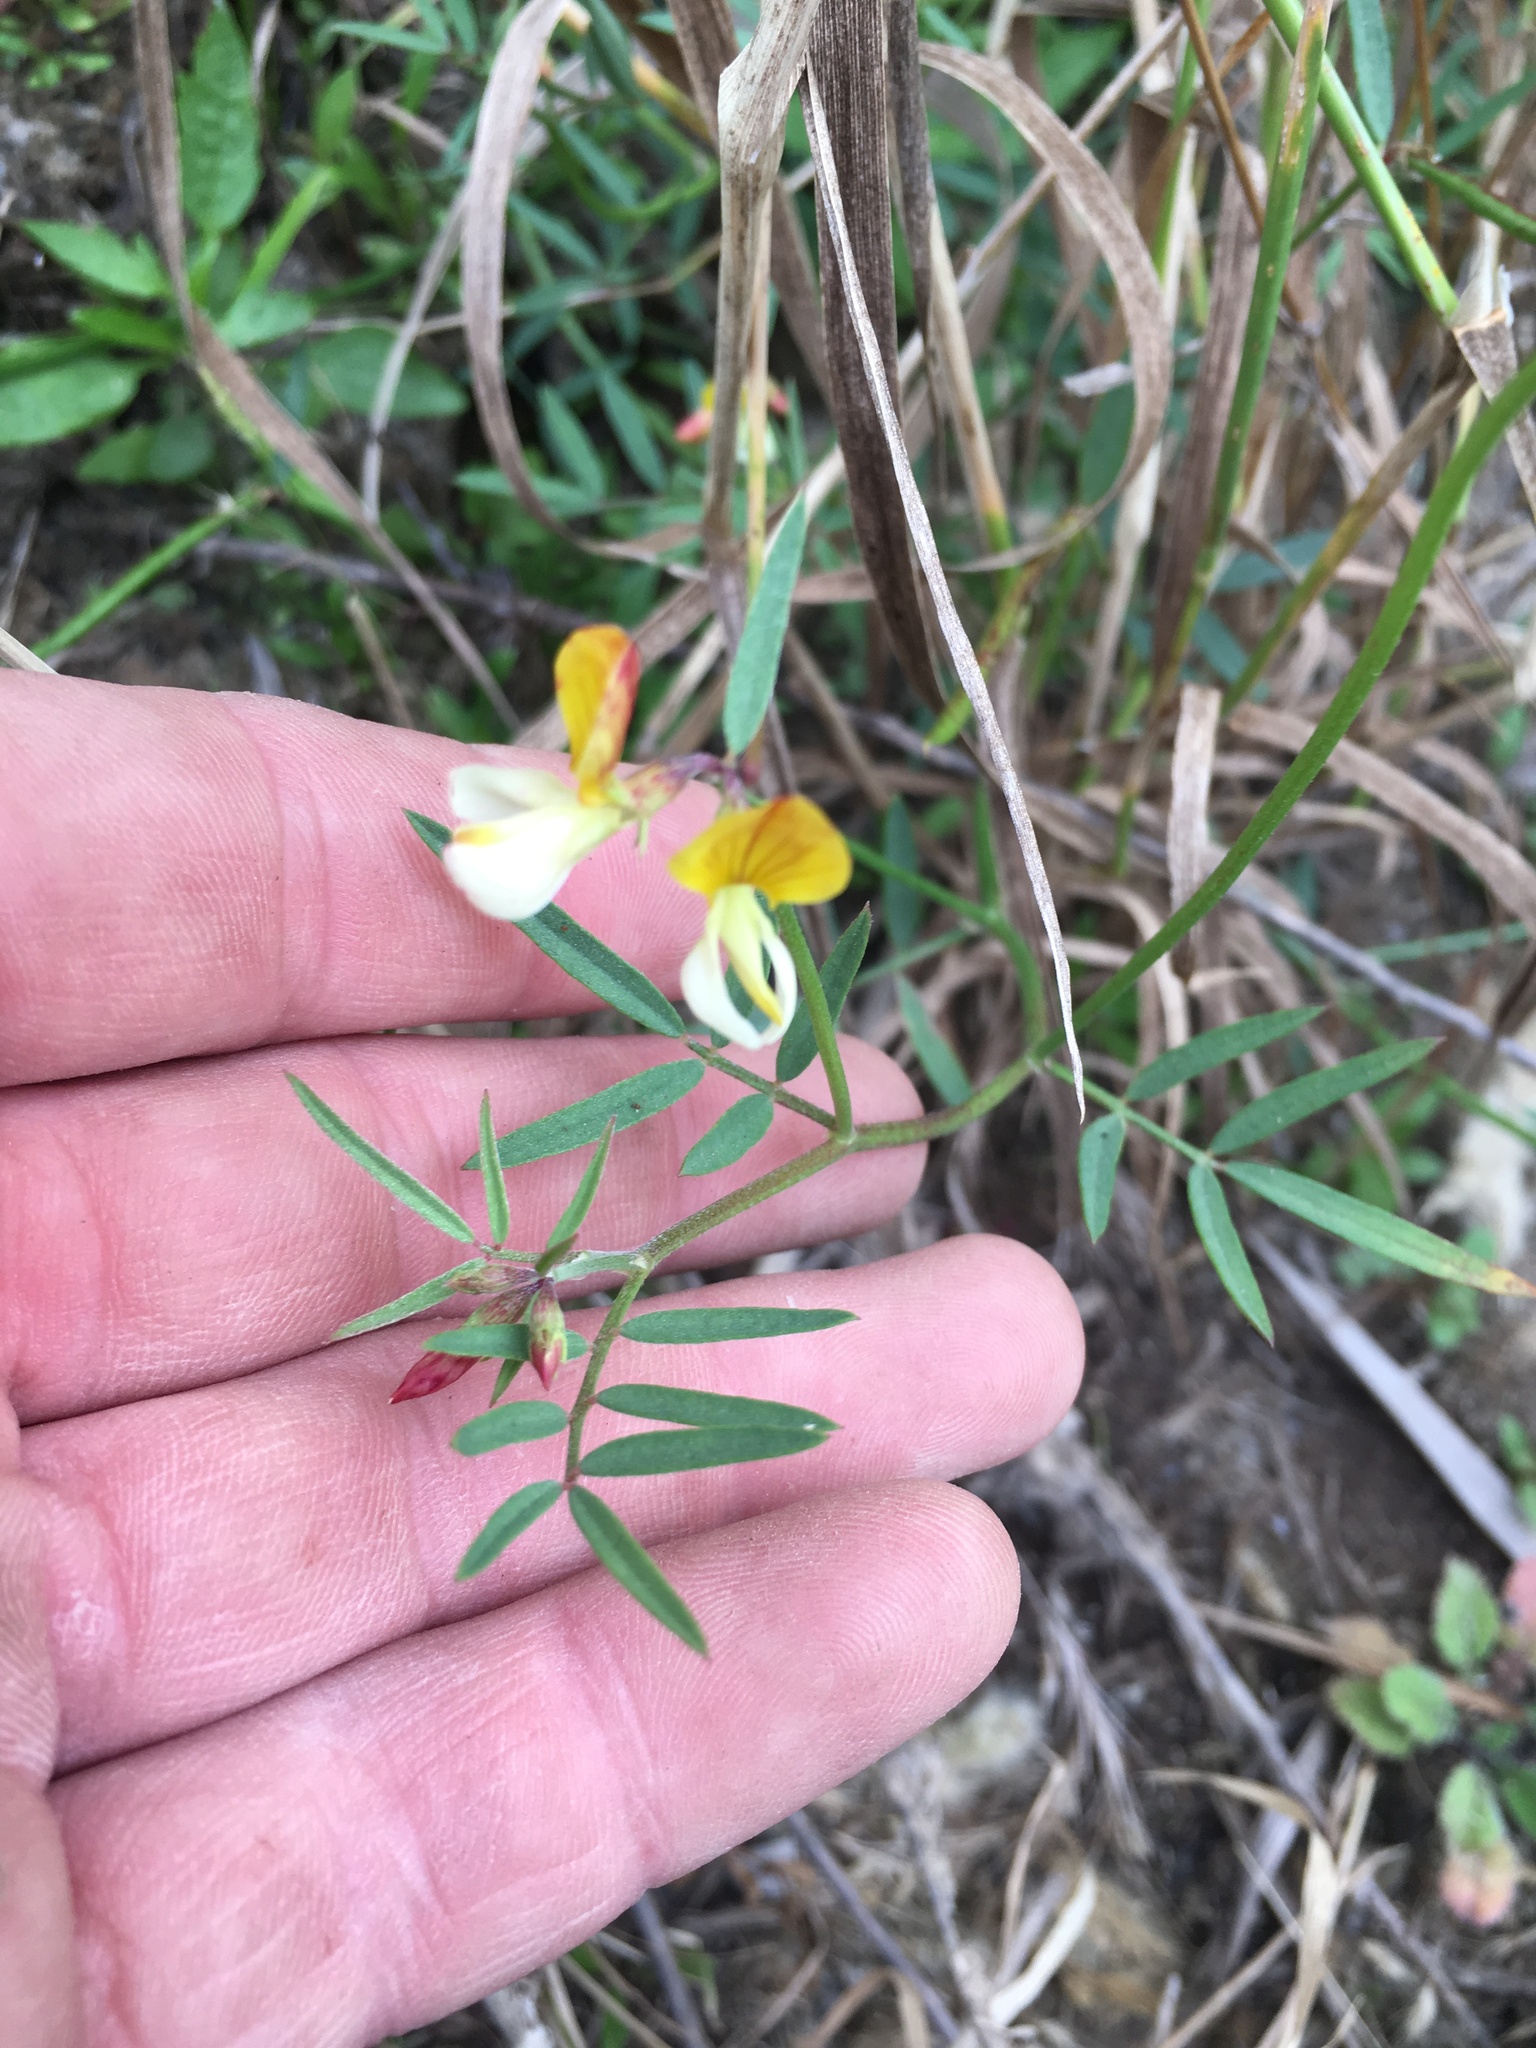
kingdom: Plantae
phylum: Tracheophyta
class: Magnoliopsida
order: Fabales
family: Fabaceae
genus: Hosackia
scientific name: Hosackia oblongifolia
